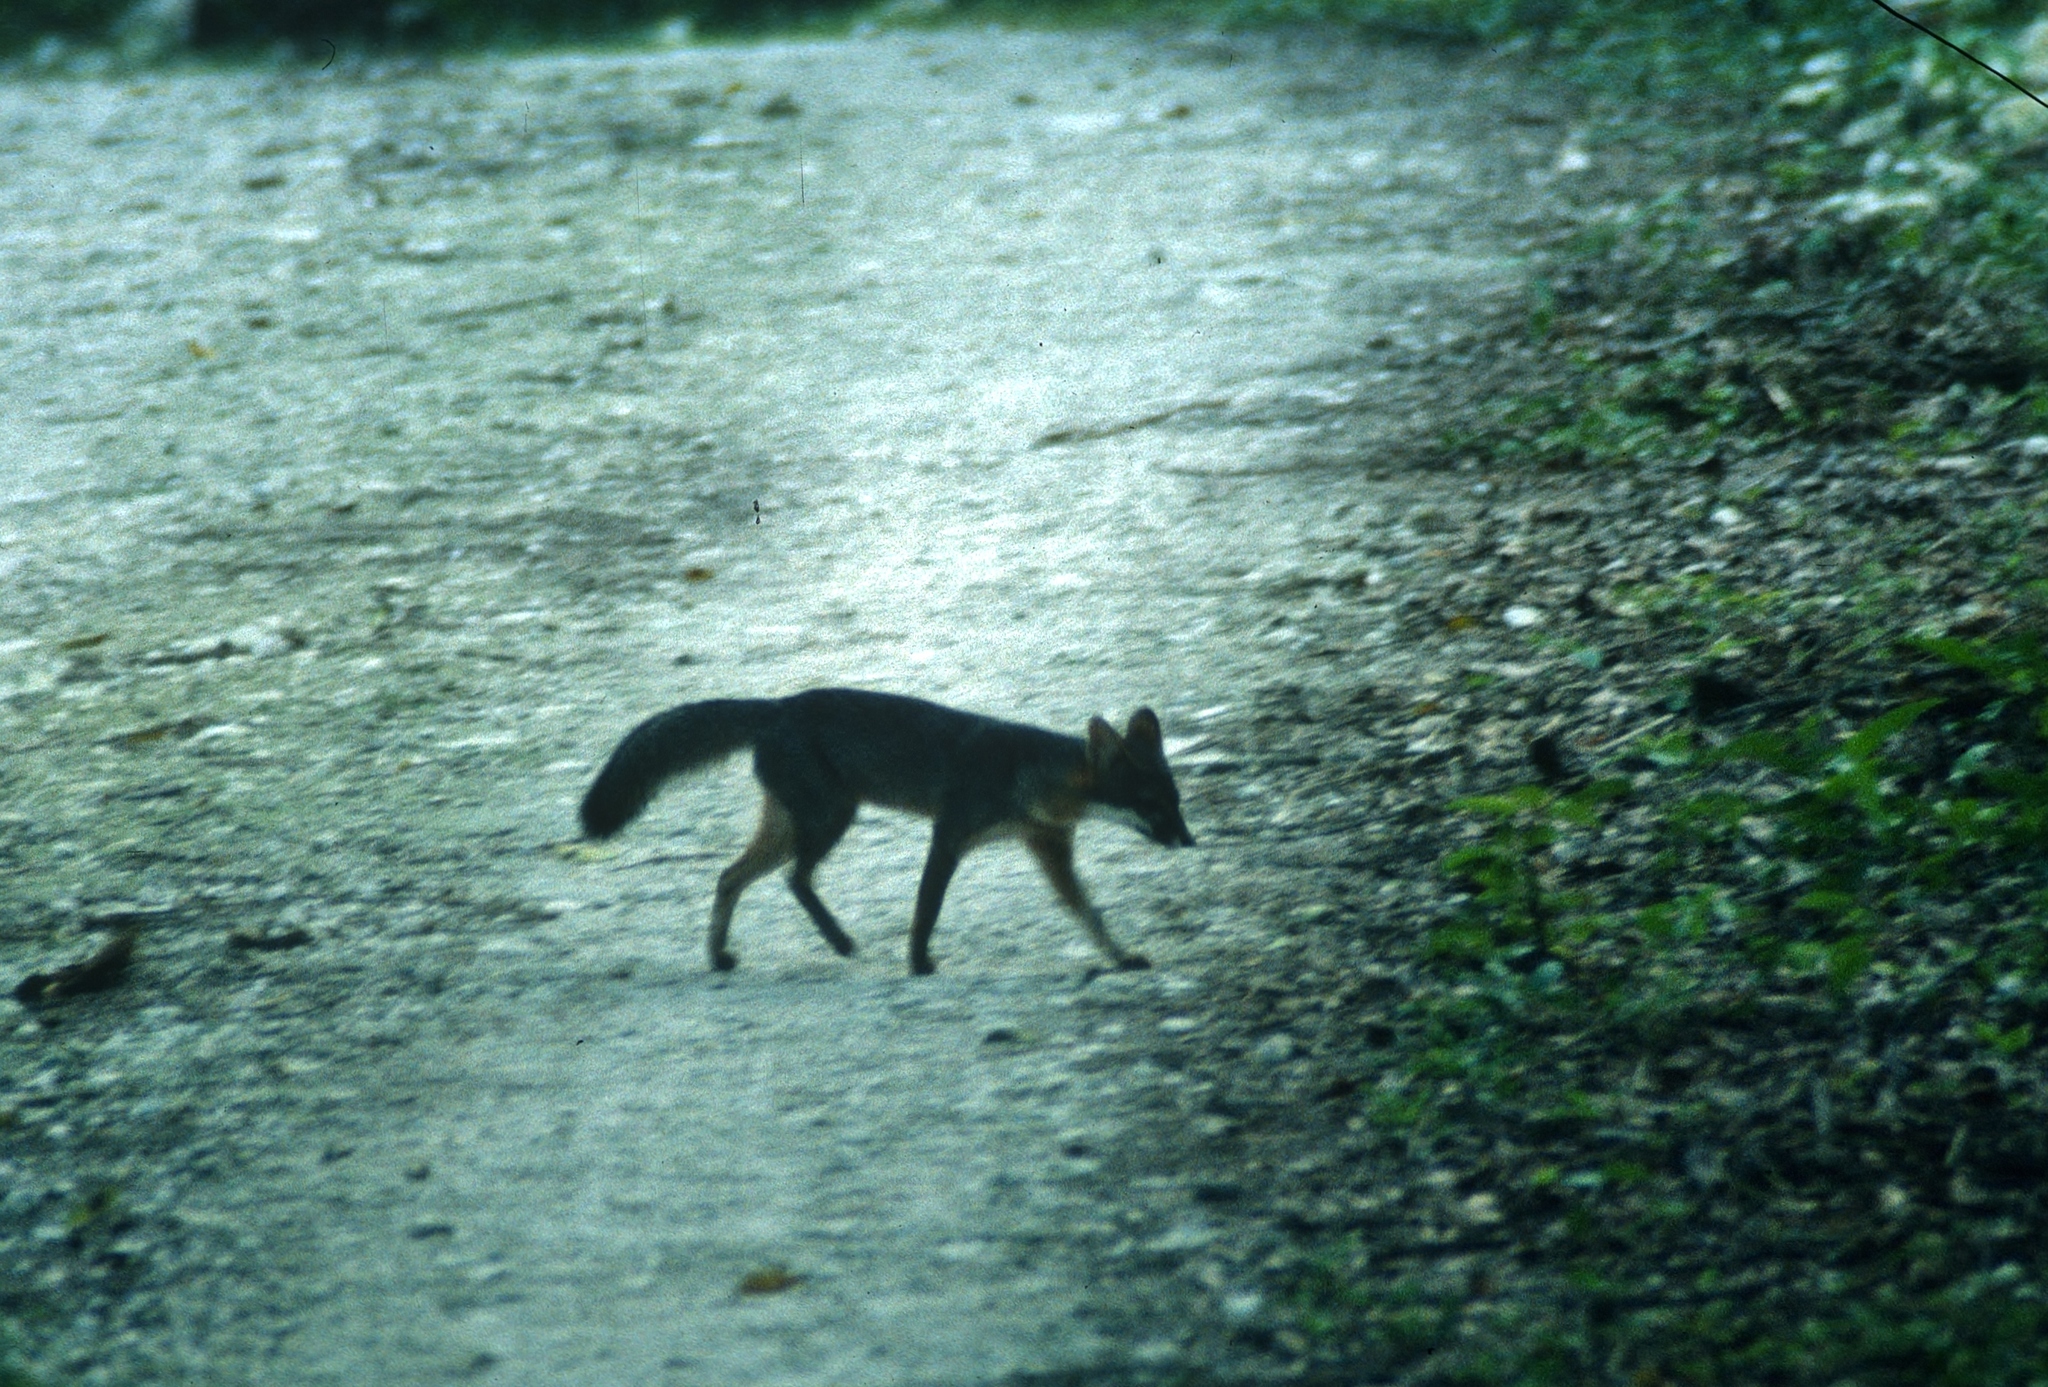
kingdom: Animalia
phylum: Chordata
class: Mammalia
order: Carnivora
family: Canidae
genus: Urocyon
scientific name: Urocyon cinereoargenteus
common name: Gray fox
